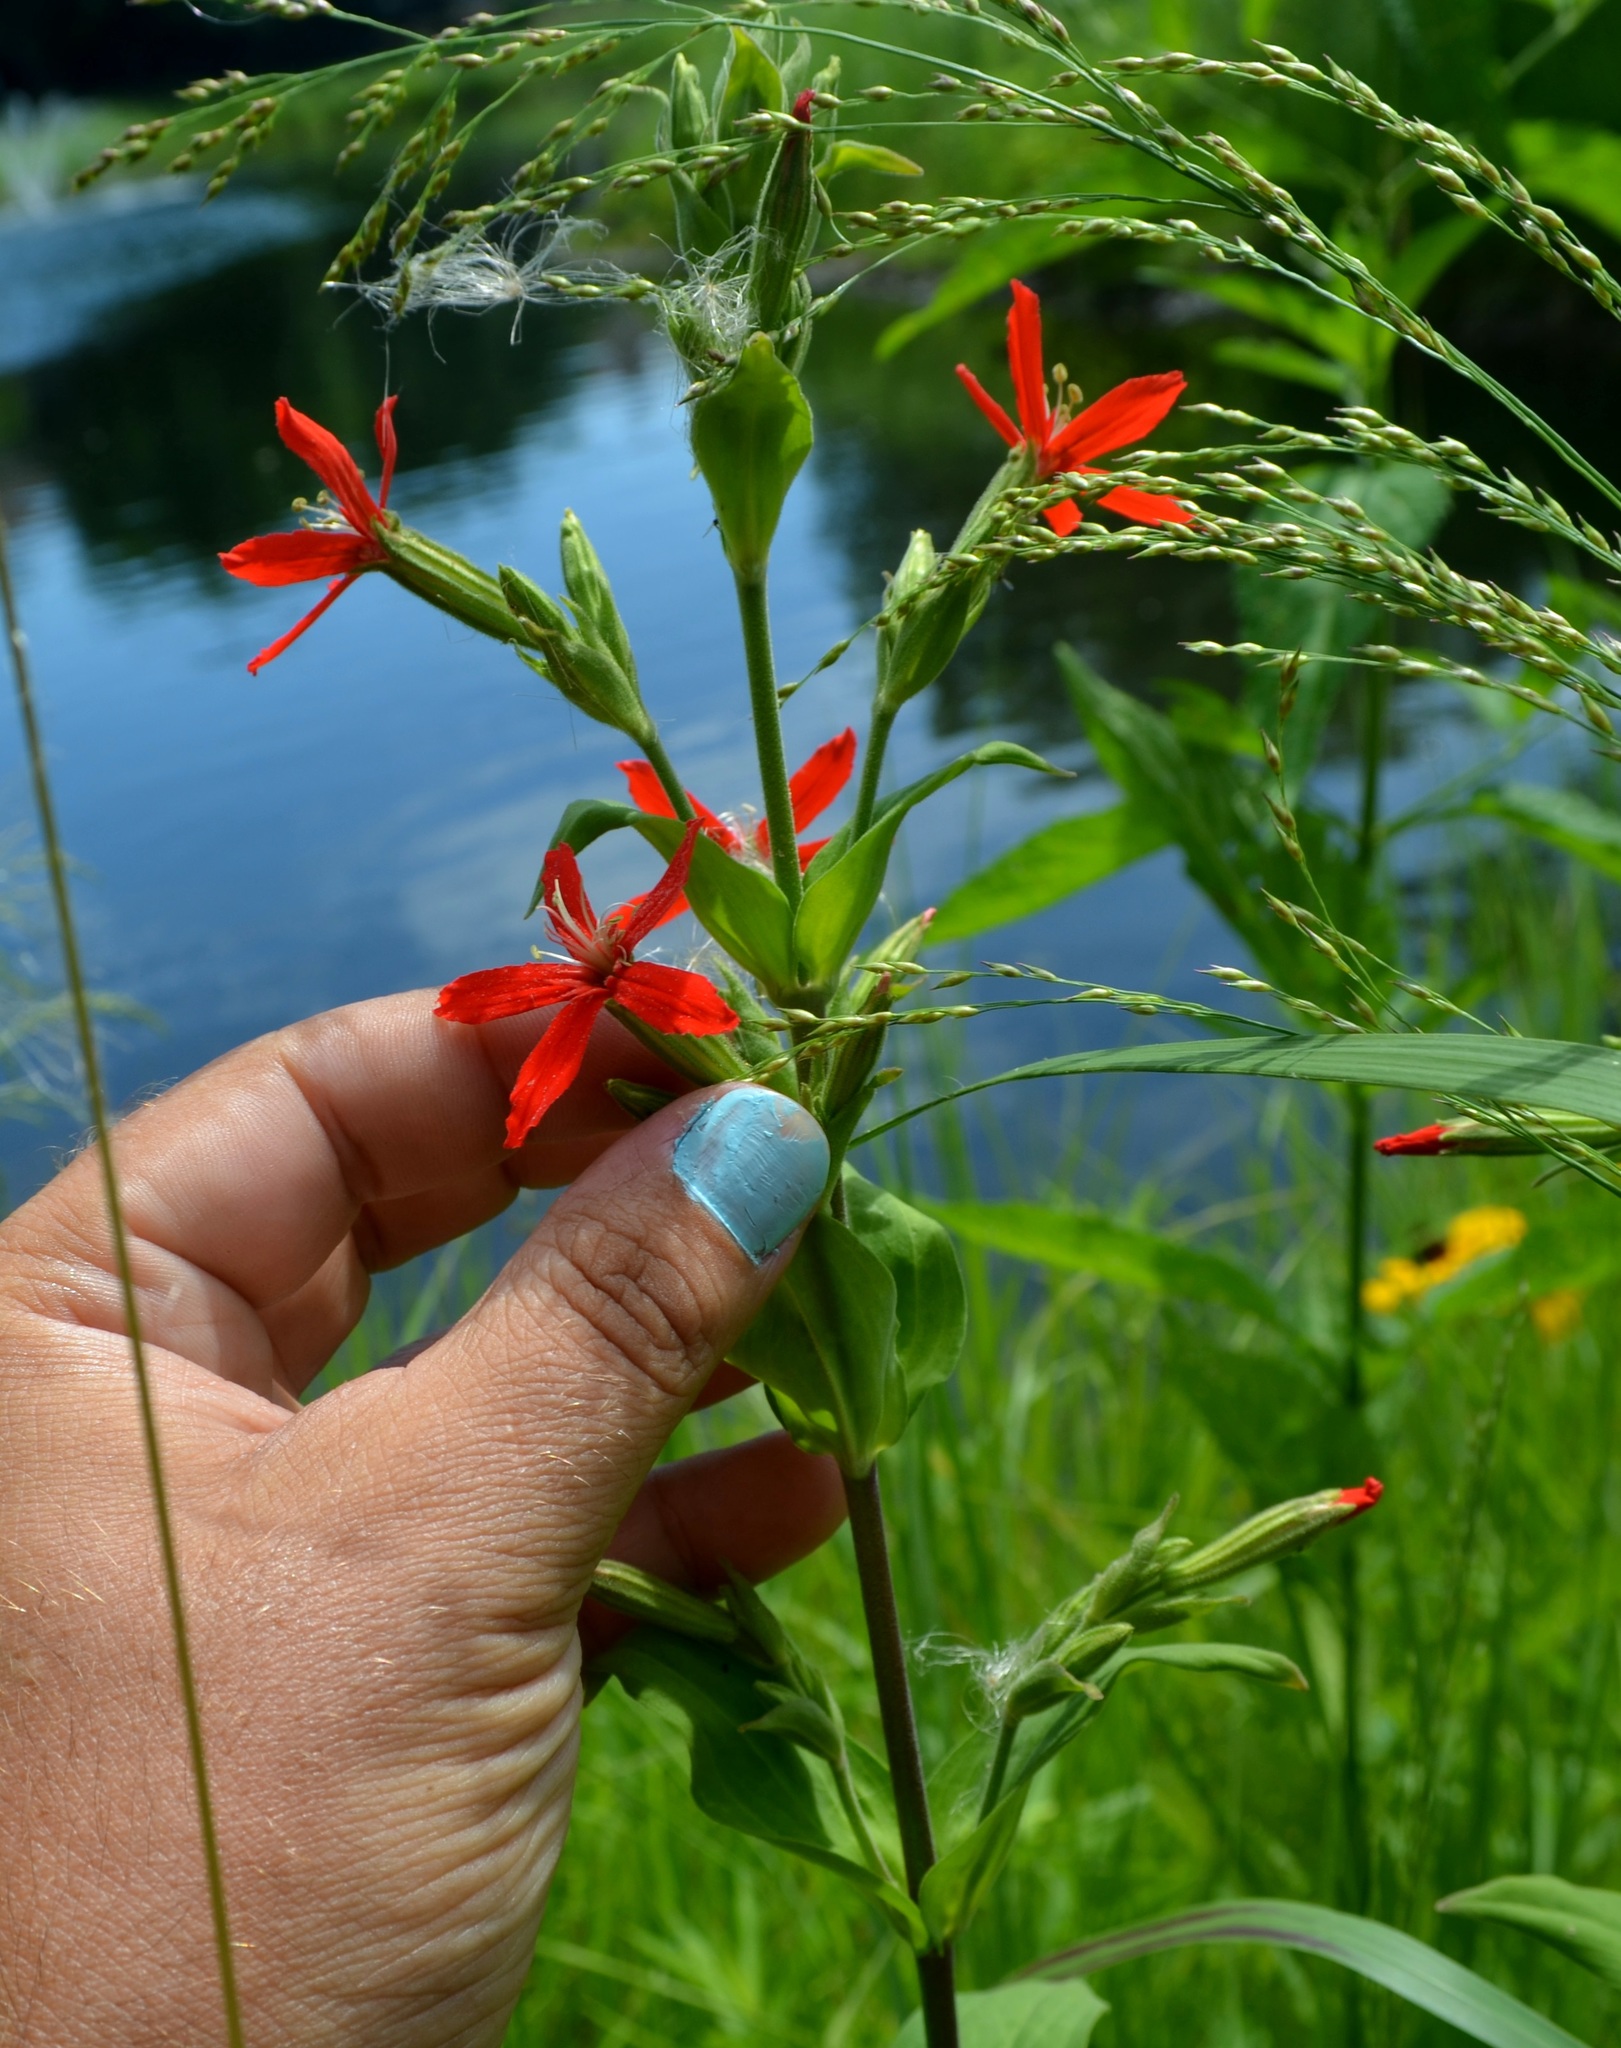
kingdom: Plantae
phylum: Tracheophyta
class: Magnoliopsida
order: Caryophyllales
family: Caryophyllaceae
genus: Silene
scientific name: Silene regia
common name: Royal catchfly
